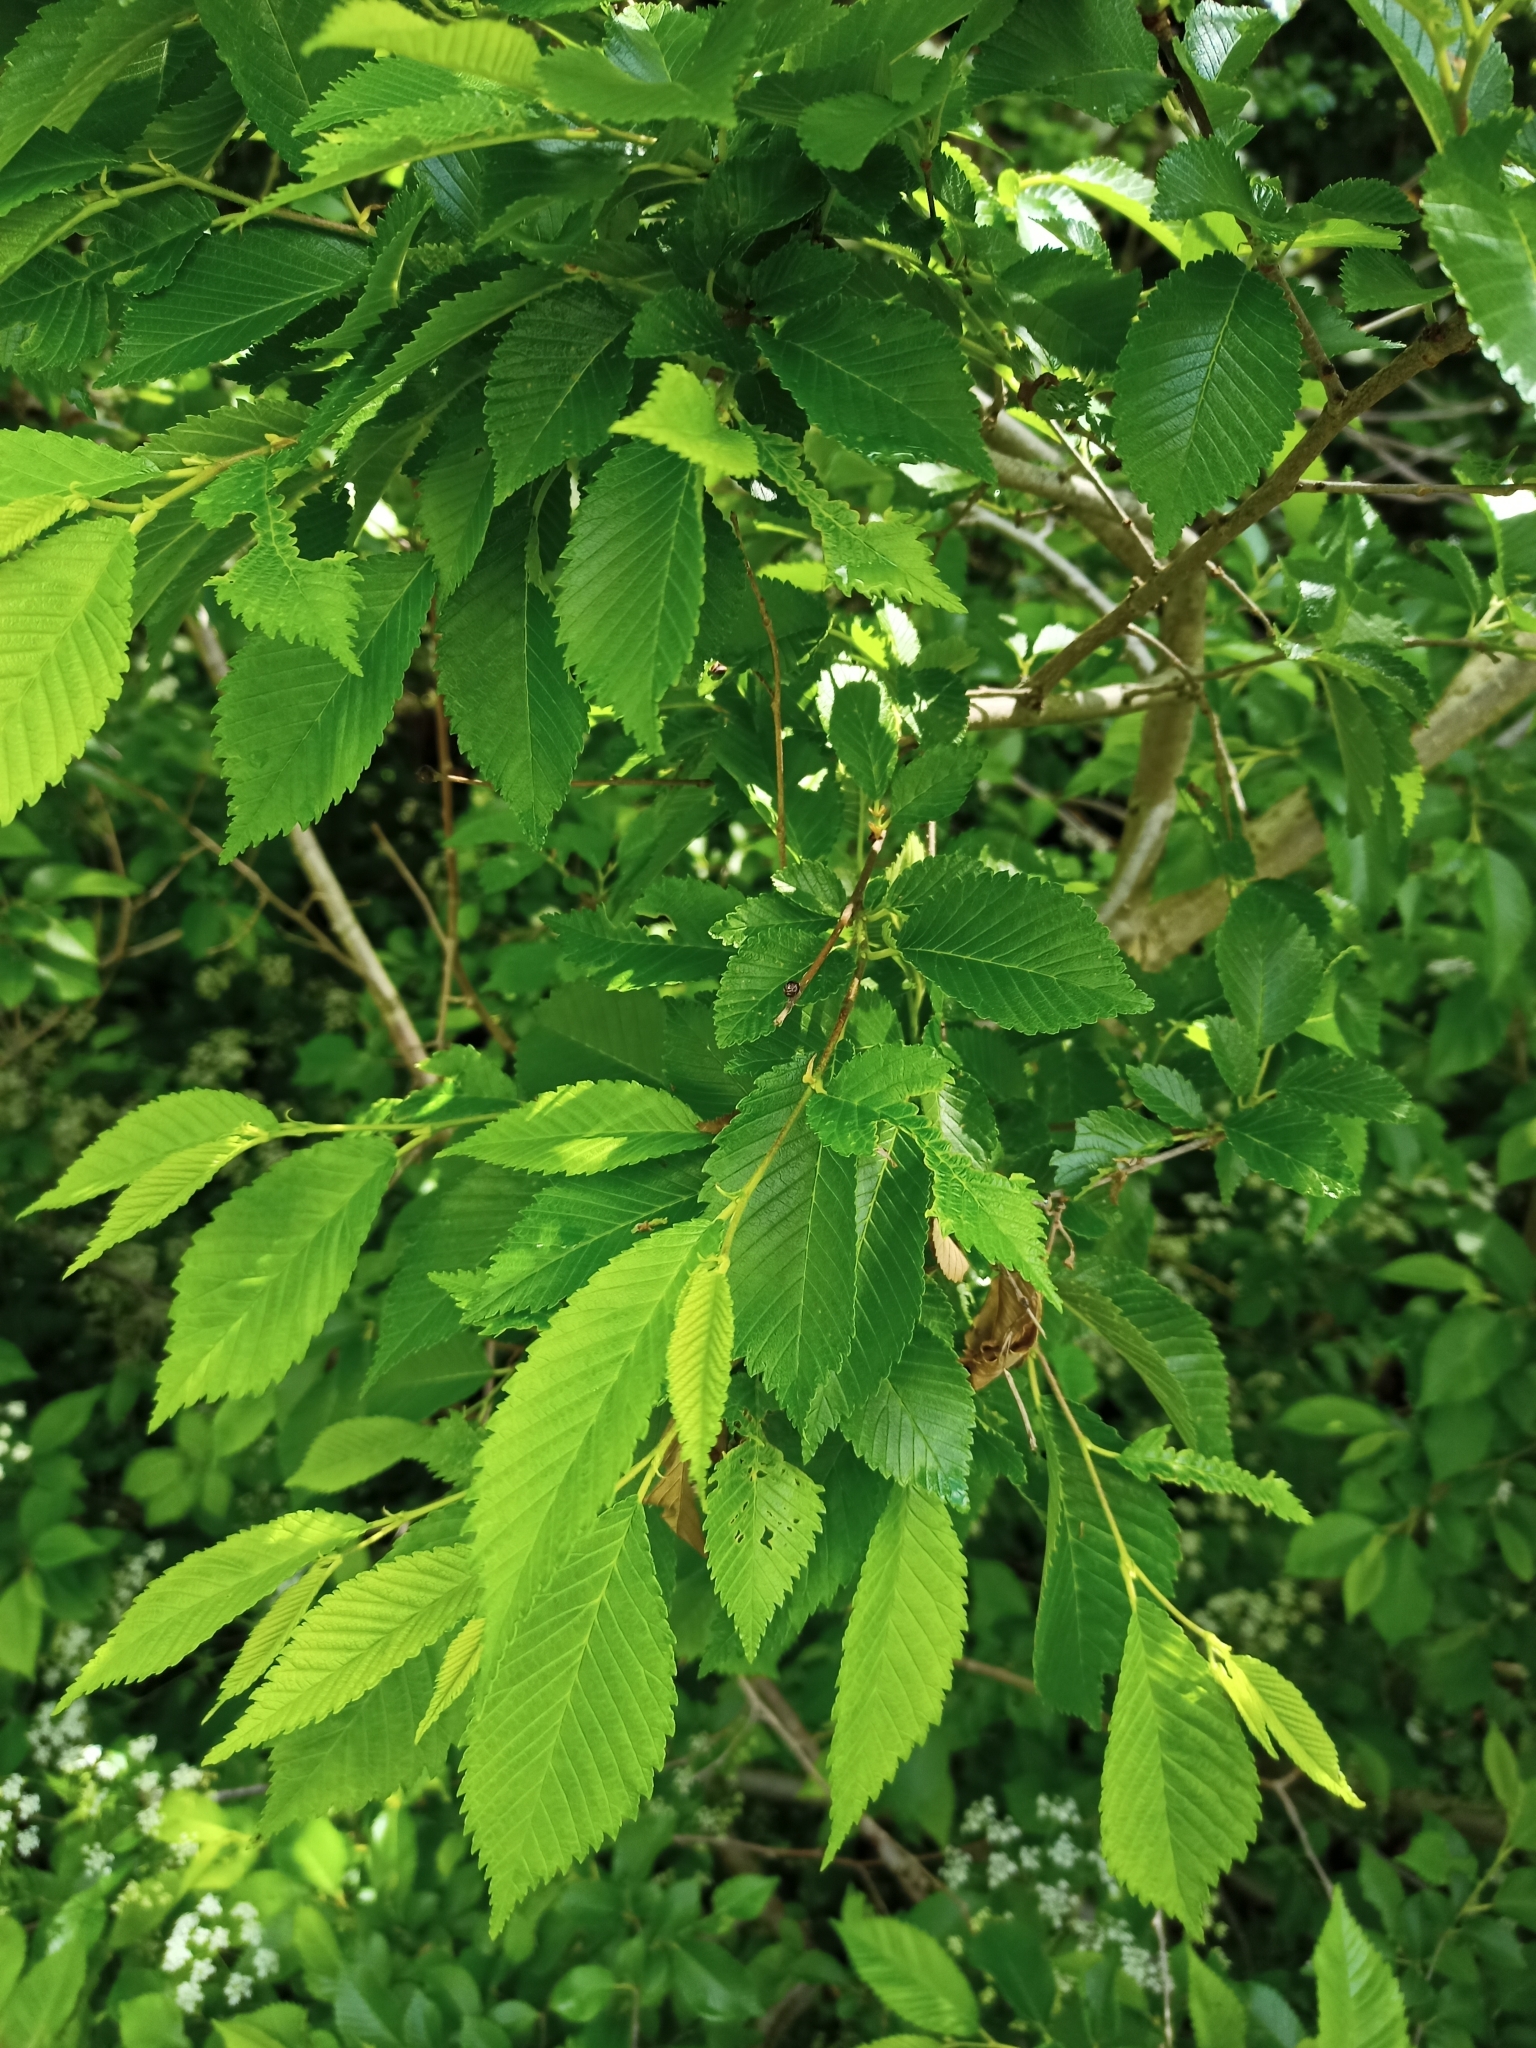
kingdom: Plantae
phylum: Tracheophyta
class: Magnoliopsida
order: Rosales
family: Ulmaceae
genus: Ulmus
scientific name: Ulmus glabra
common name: Wych elm
